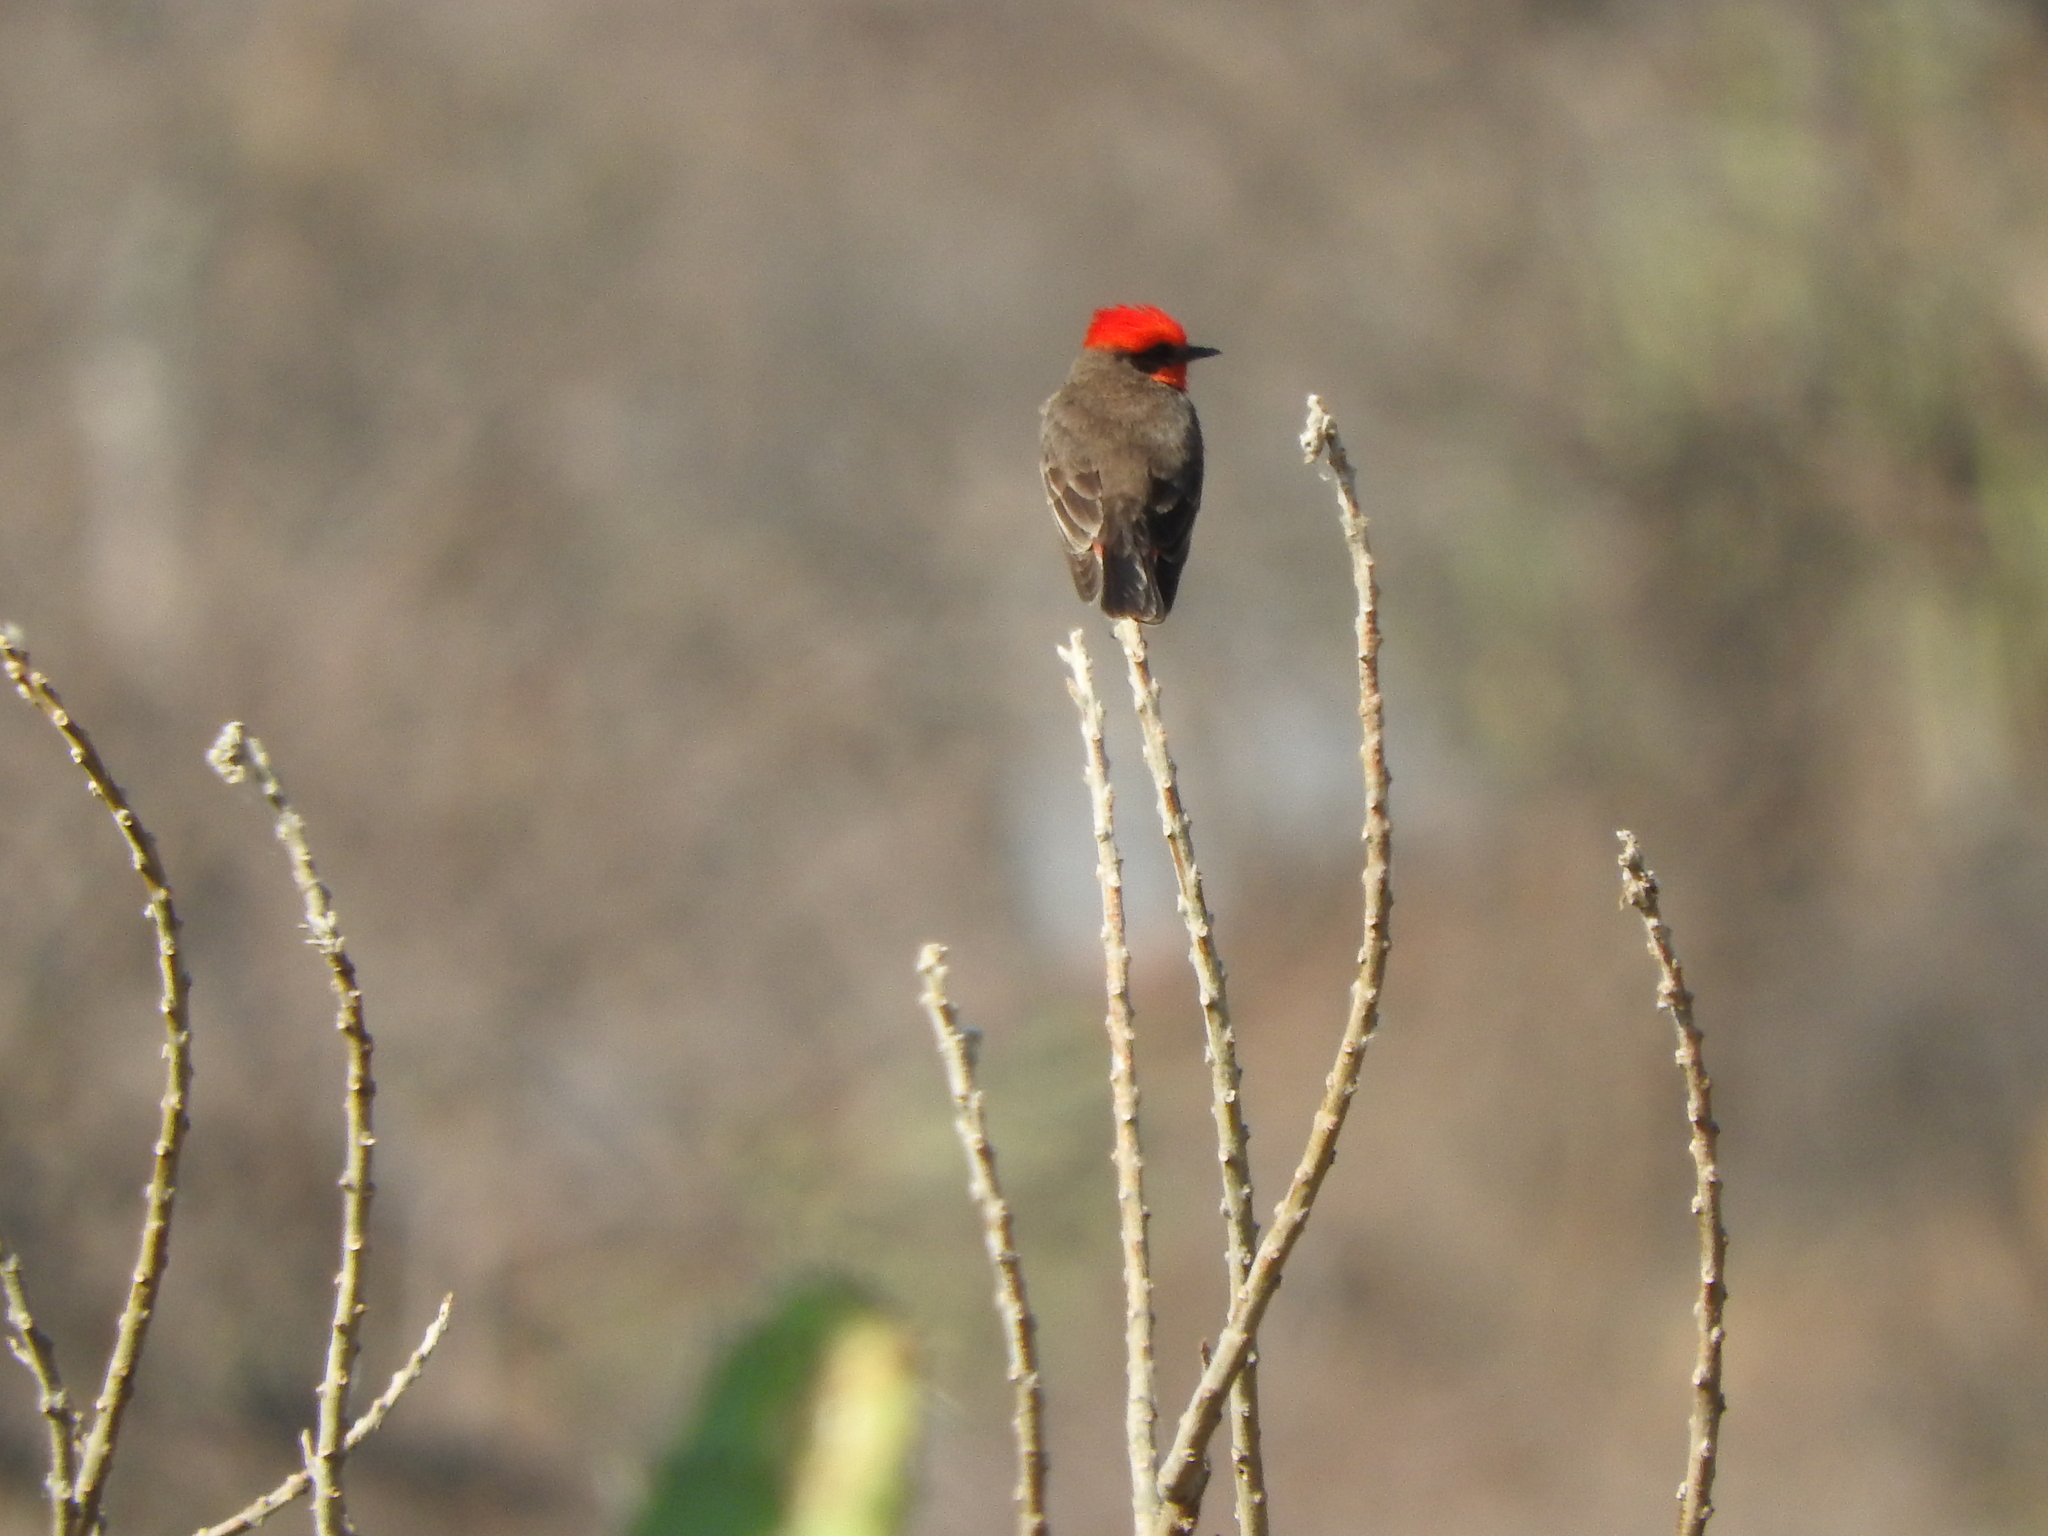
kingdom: Animalia
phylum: Chordata
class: Aves
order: Passeriformes
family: Tyrannidae
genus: Pyrocephalus
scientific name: Pyrocephalus rubinus
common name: Vermilion flycatcher
